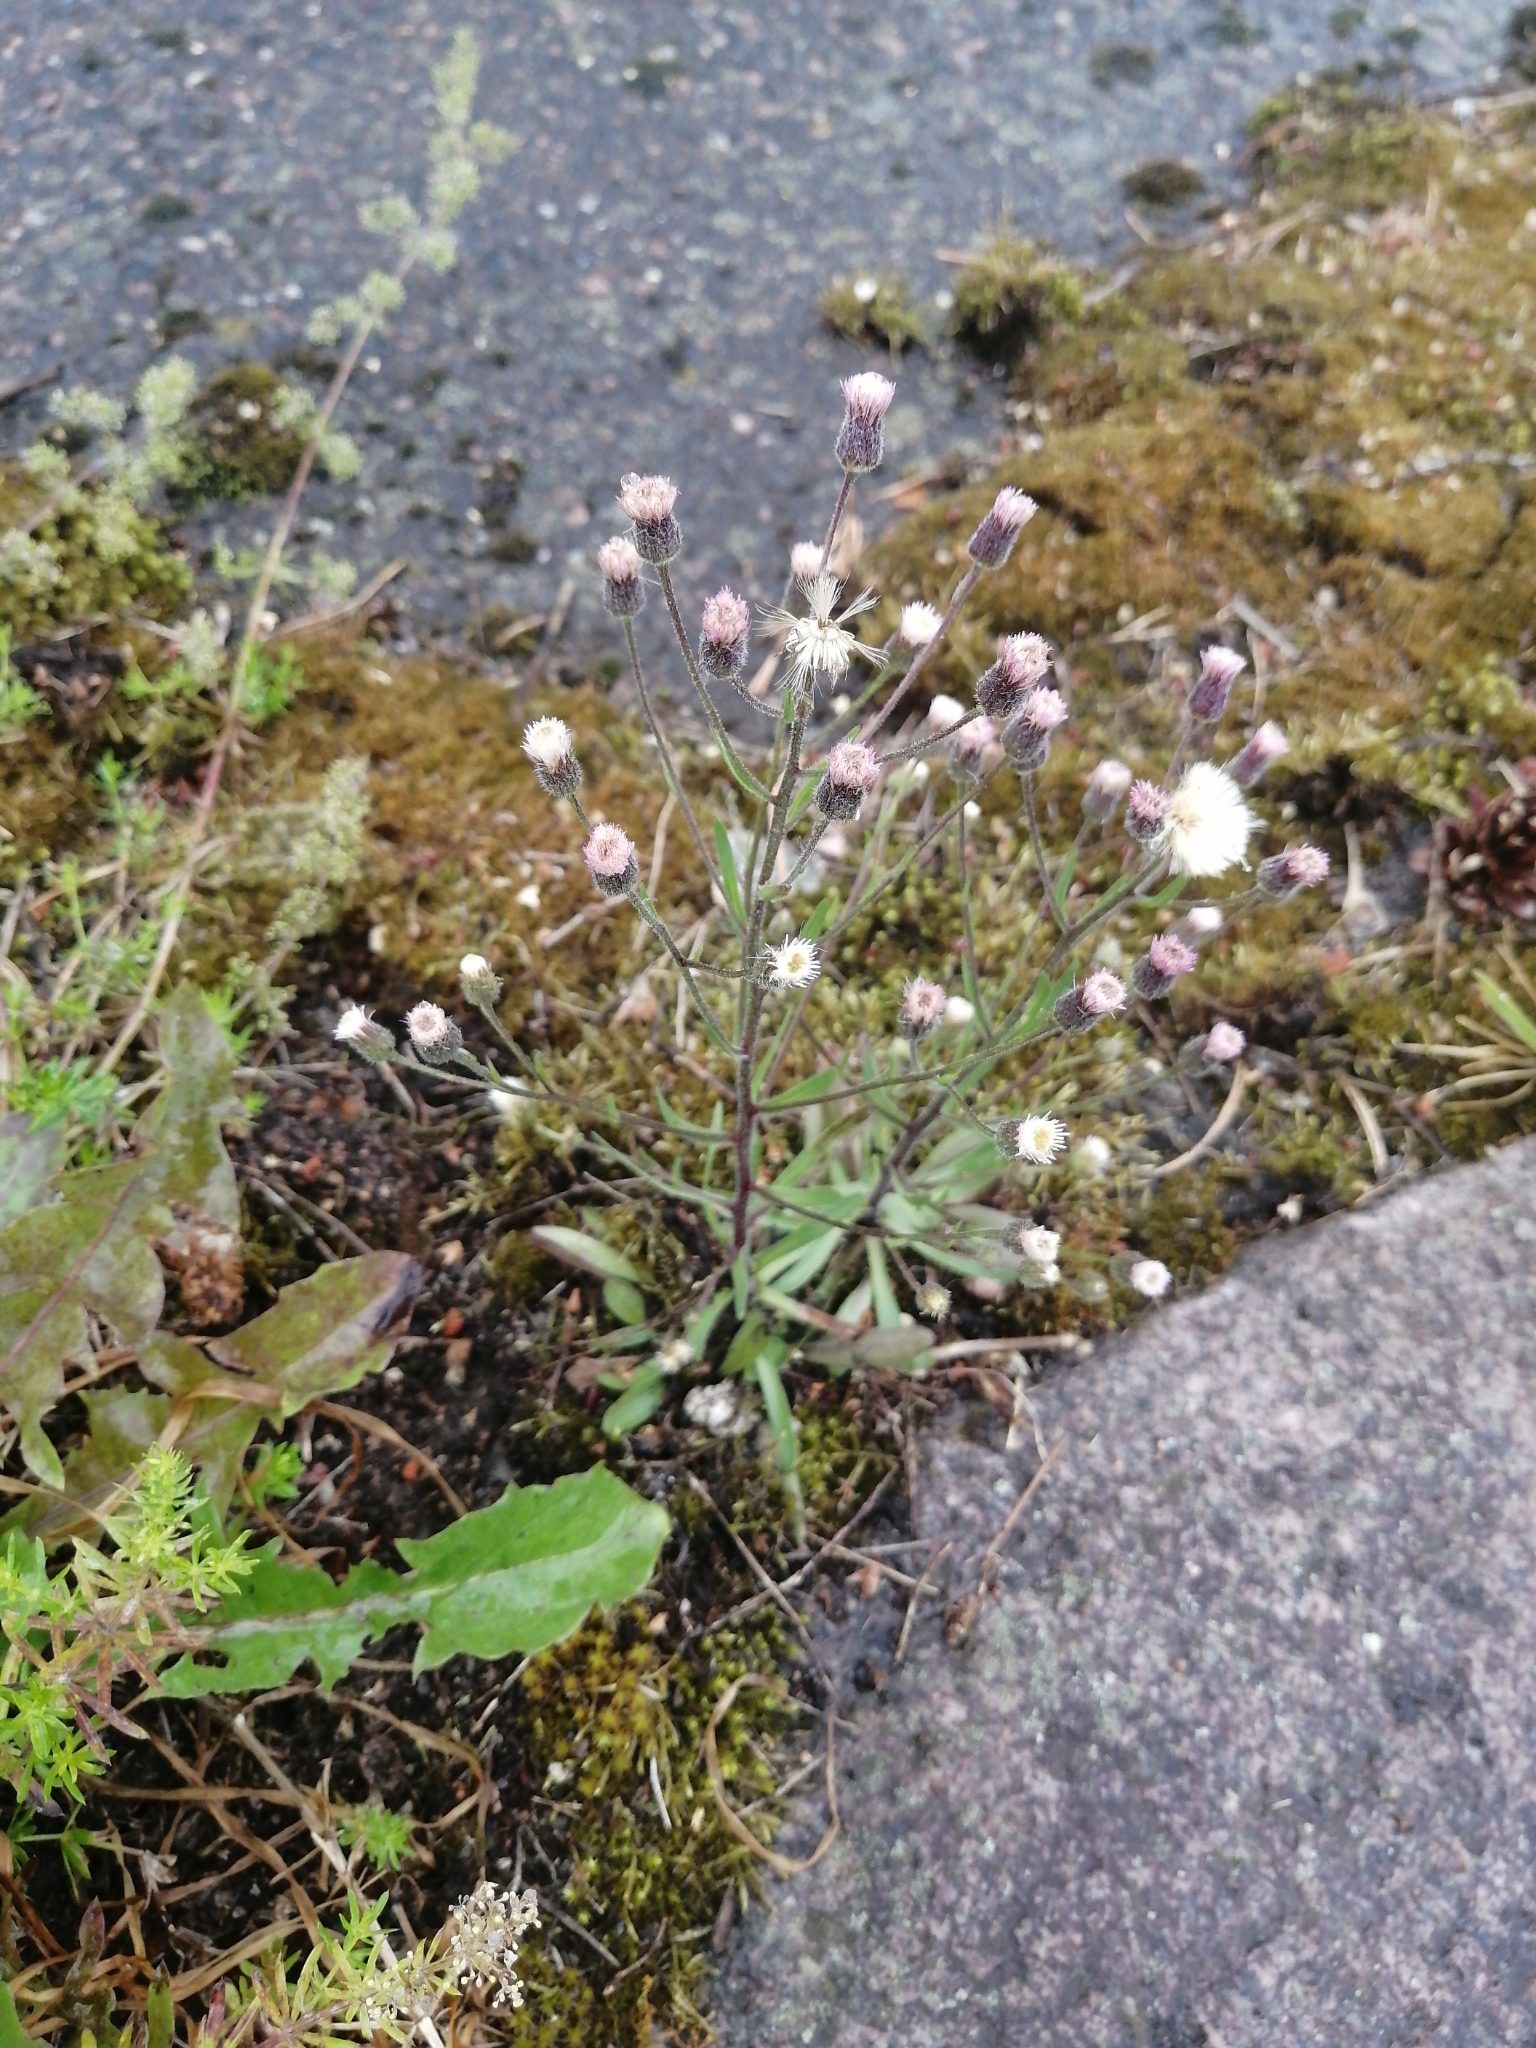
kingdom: Plantae
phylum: Tracheophyta
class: Magnoliopsida
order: Asterales
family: Asteraceae
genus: Erigeron
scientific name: Erigeron acris
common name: Blue fleabane
